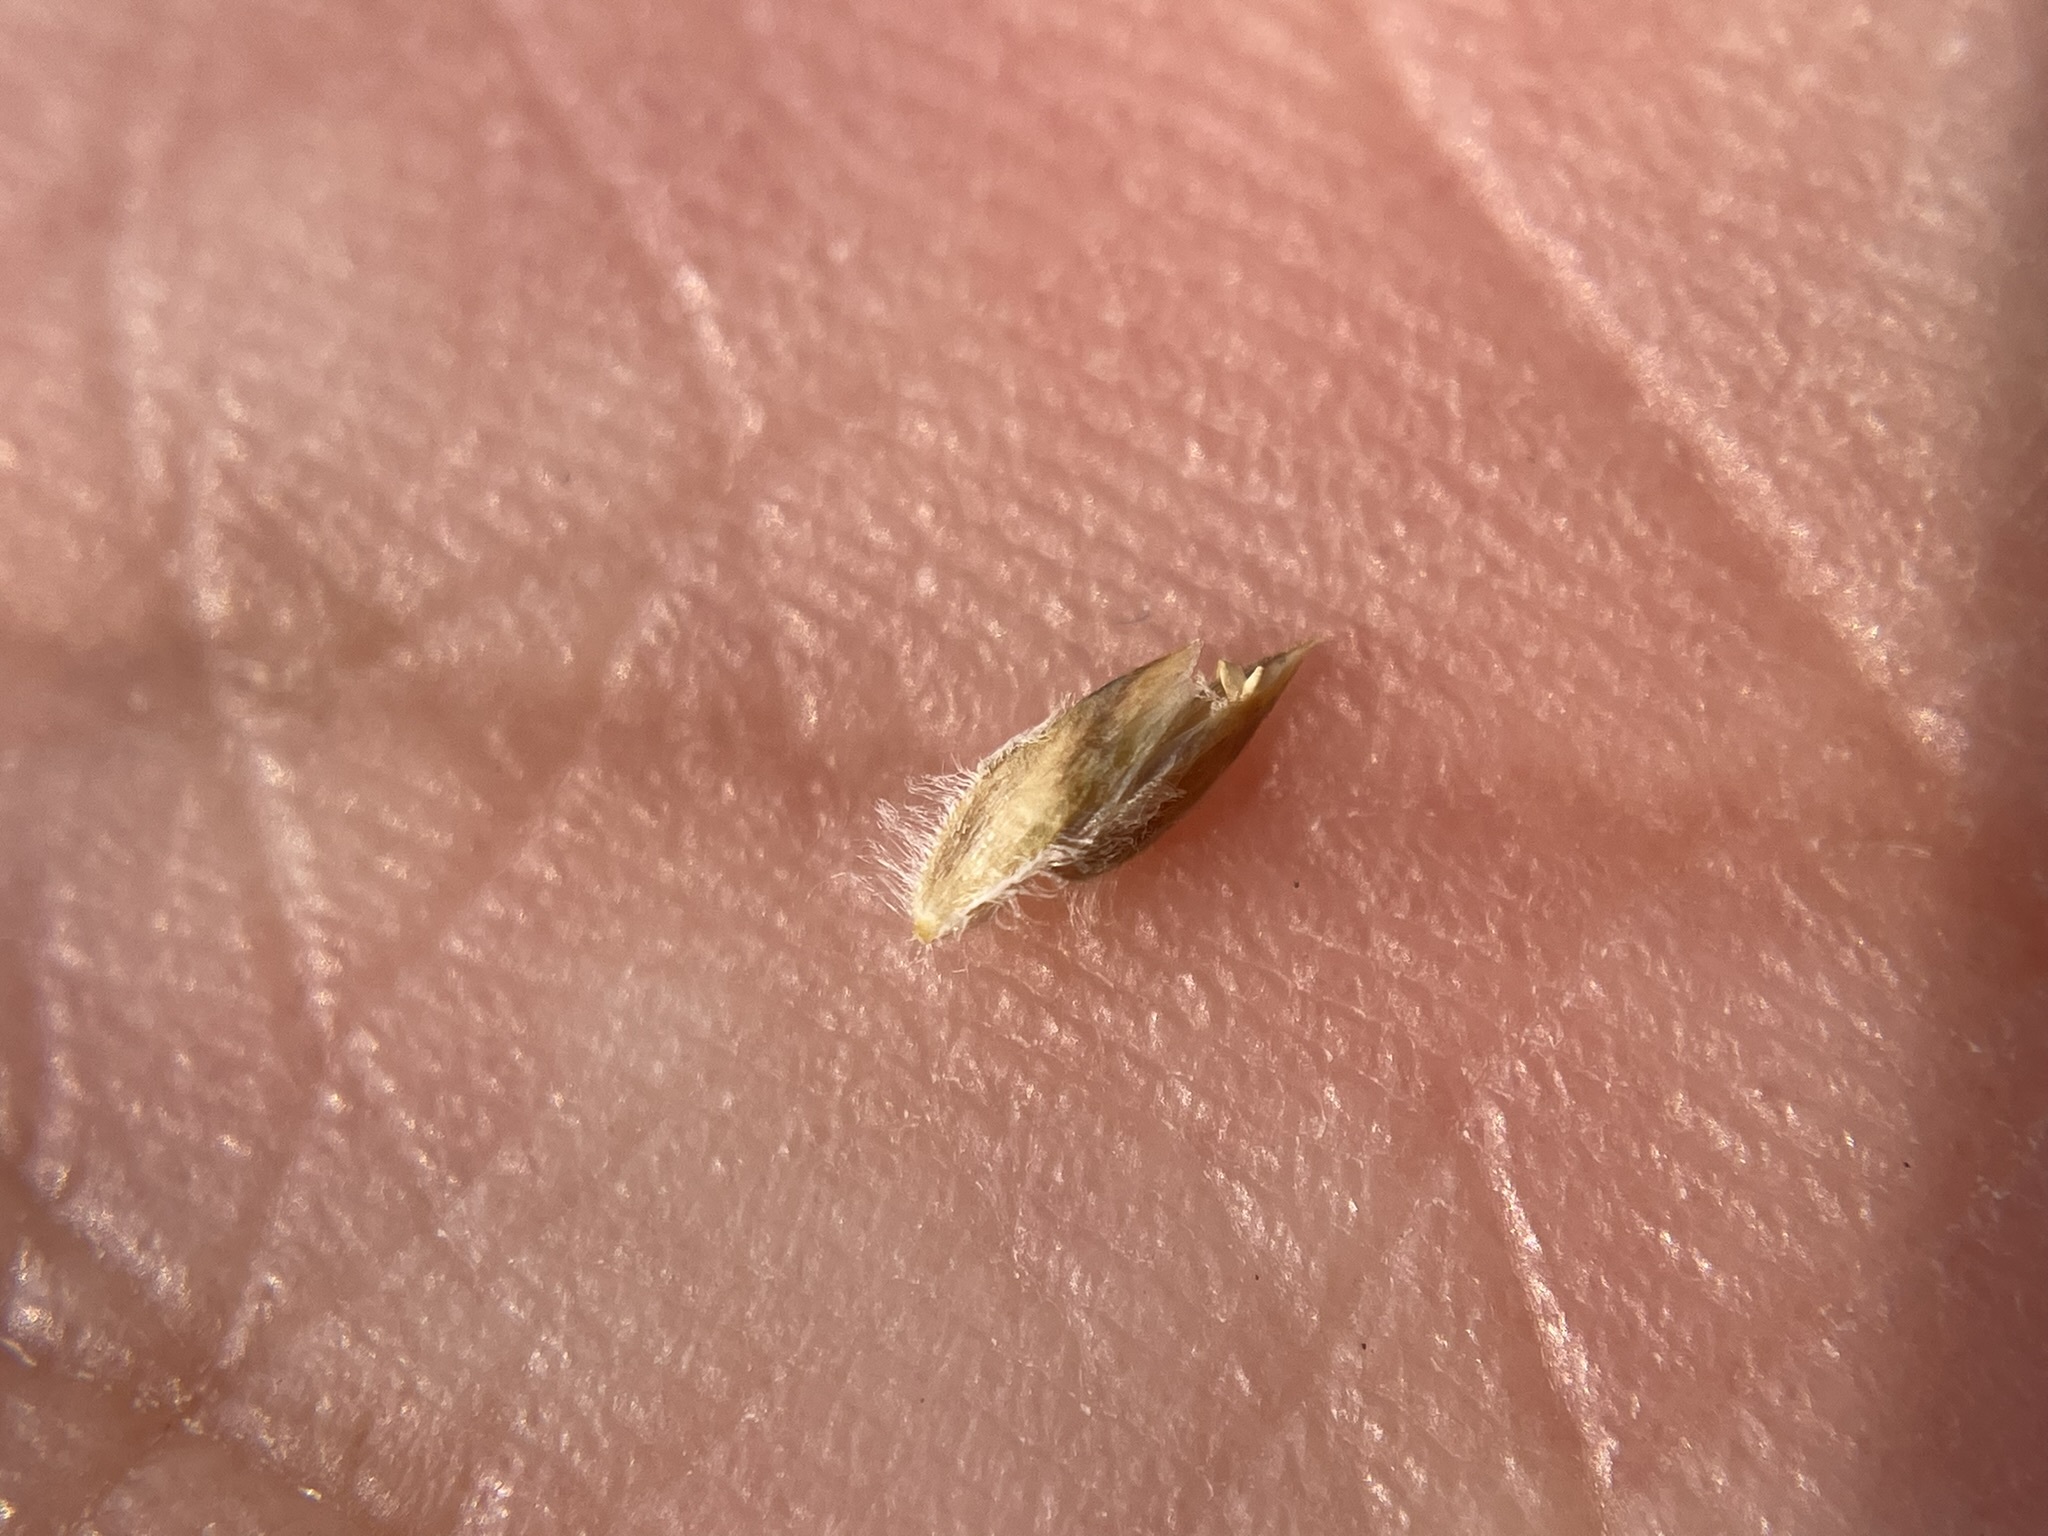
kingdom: Plantae
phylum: Tracheophyta
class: Liliopsida
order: Poales
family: Poaceae
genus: Poa
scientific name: Poa alpina
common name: Alpine bluegrass
